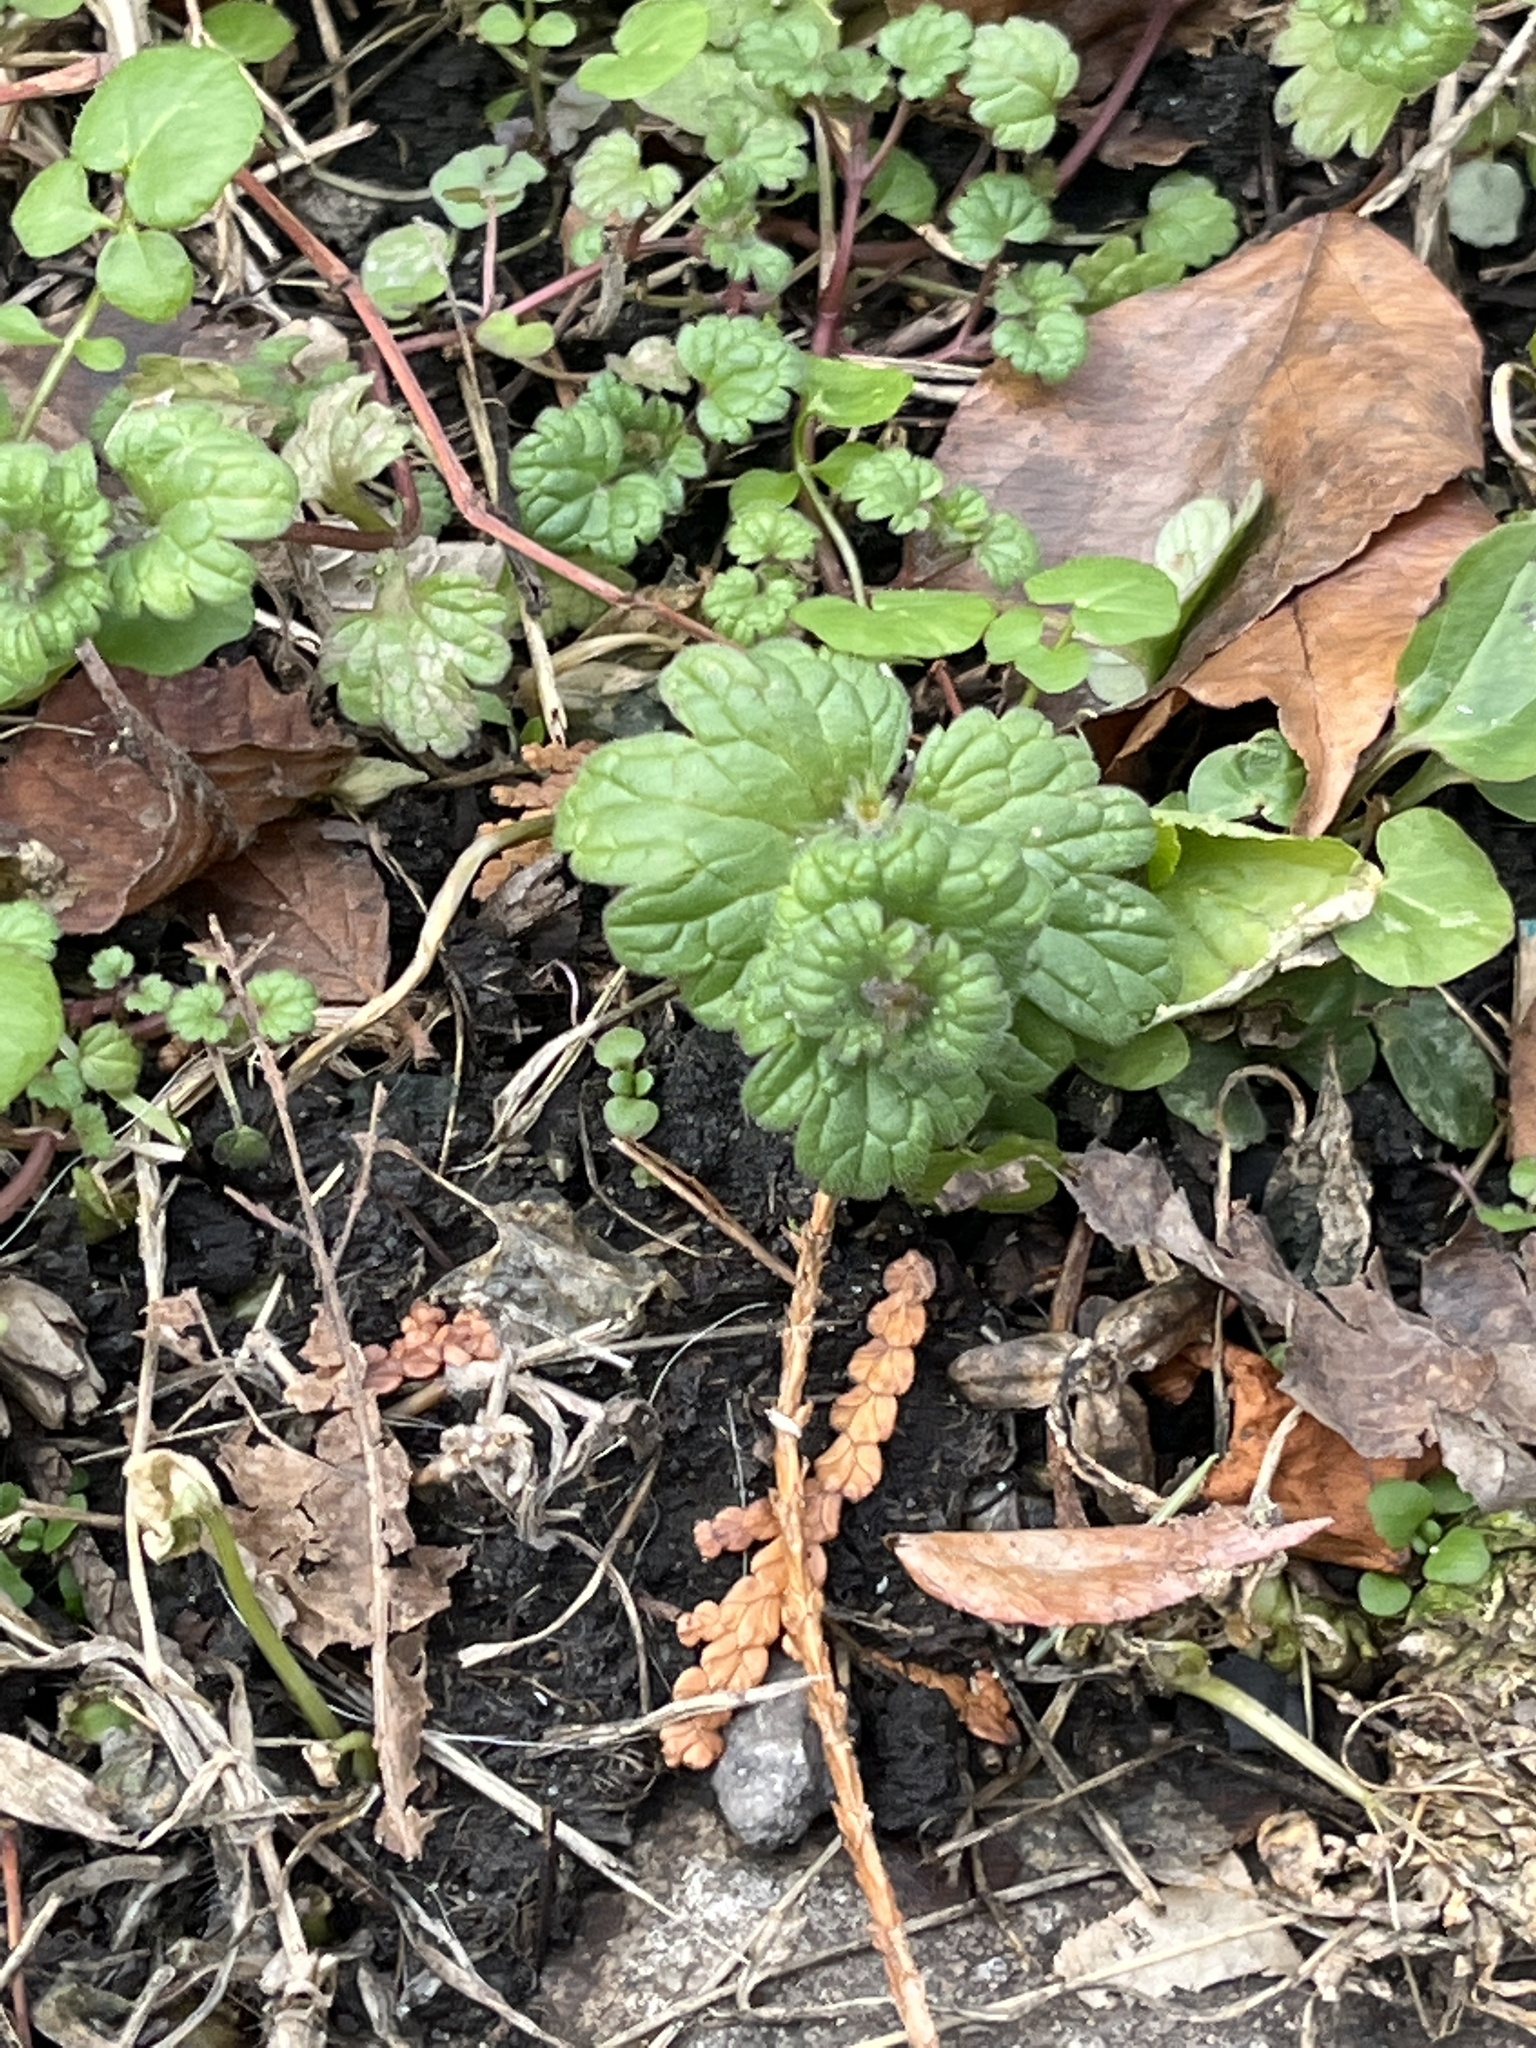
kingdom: Plantae
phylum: Tracheophyta
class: Magnoliopsida
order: Lamiales
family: Lamiaceae
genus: Lamium
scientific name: Lamium amplexicaule
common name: Henbit dead-nettle
